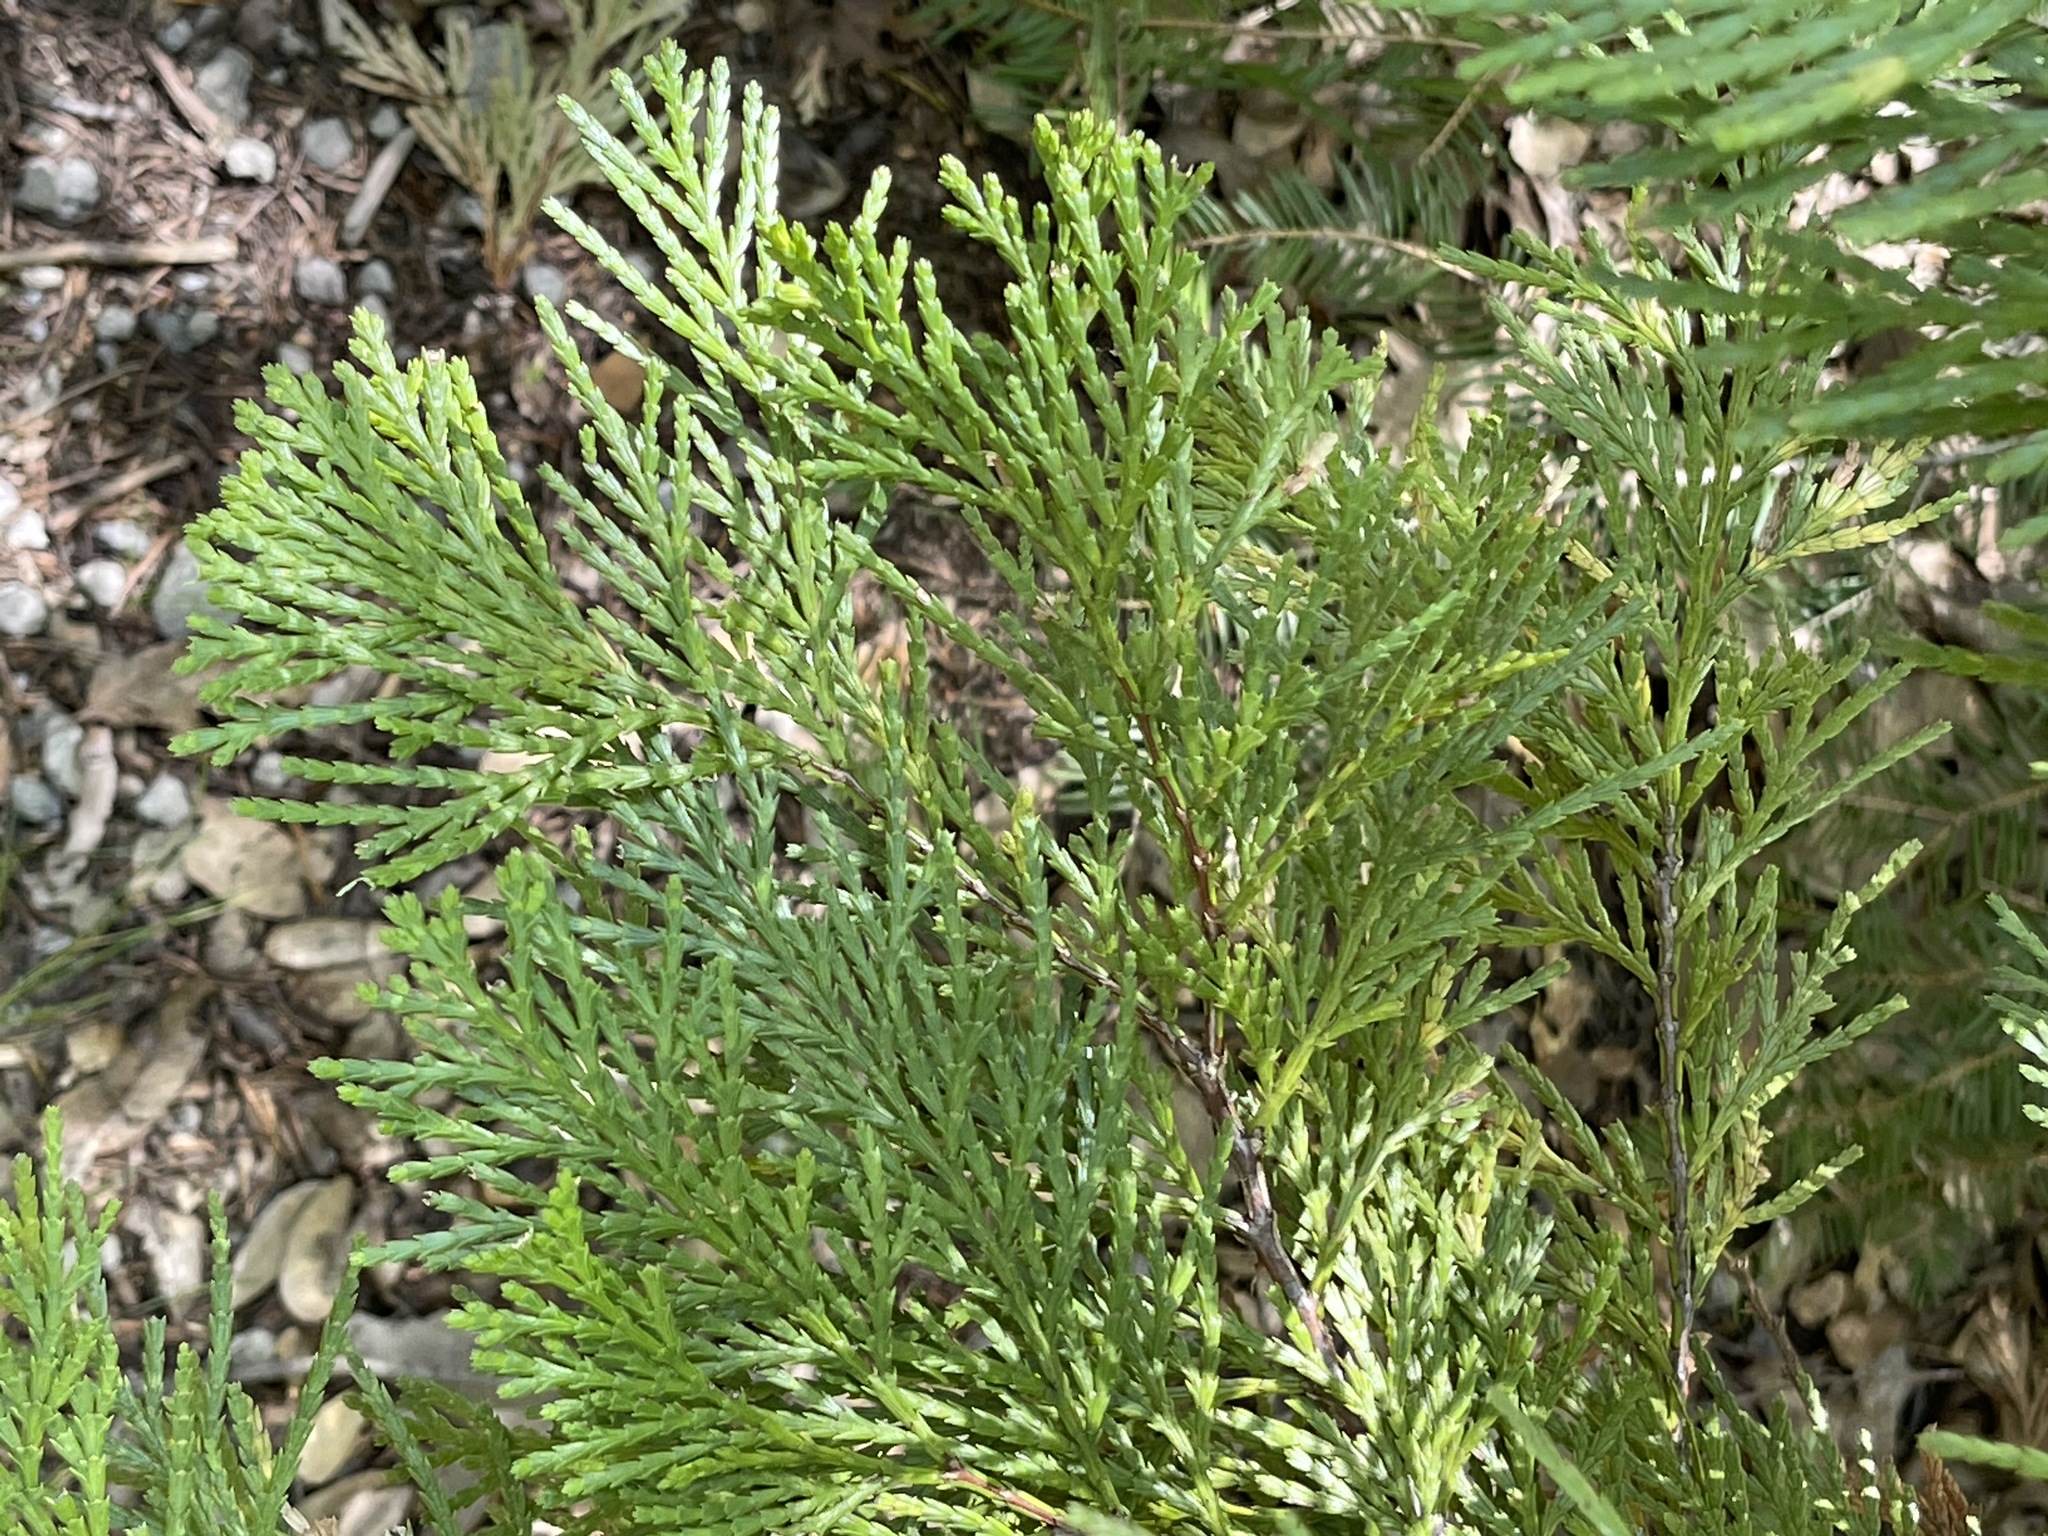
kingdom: Plantae
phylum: Tracheophyta
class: Pinopsida
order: Pinales
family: Cupressaceae
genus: Calocedrus
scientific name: Calocedrus decurrens
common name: Californian incense-cedar
